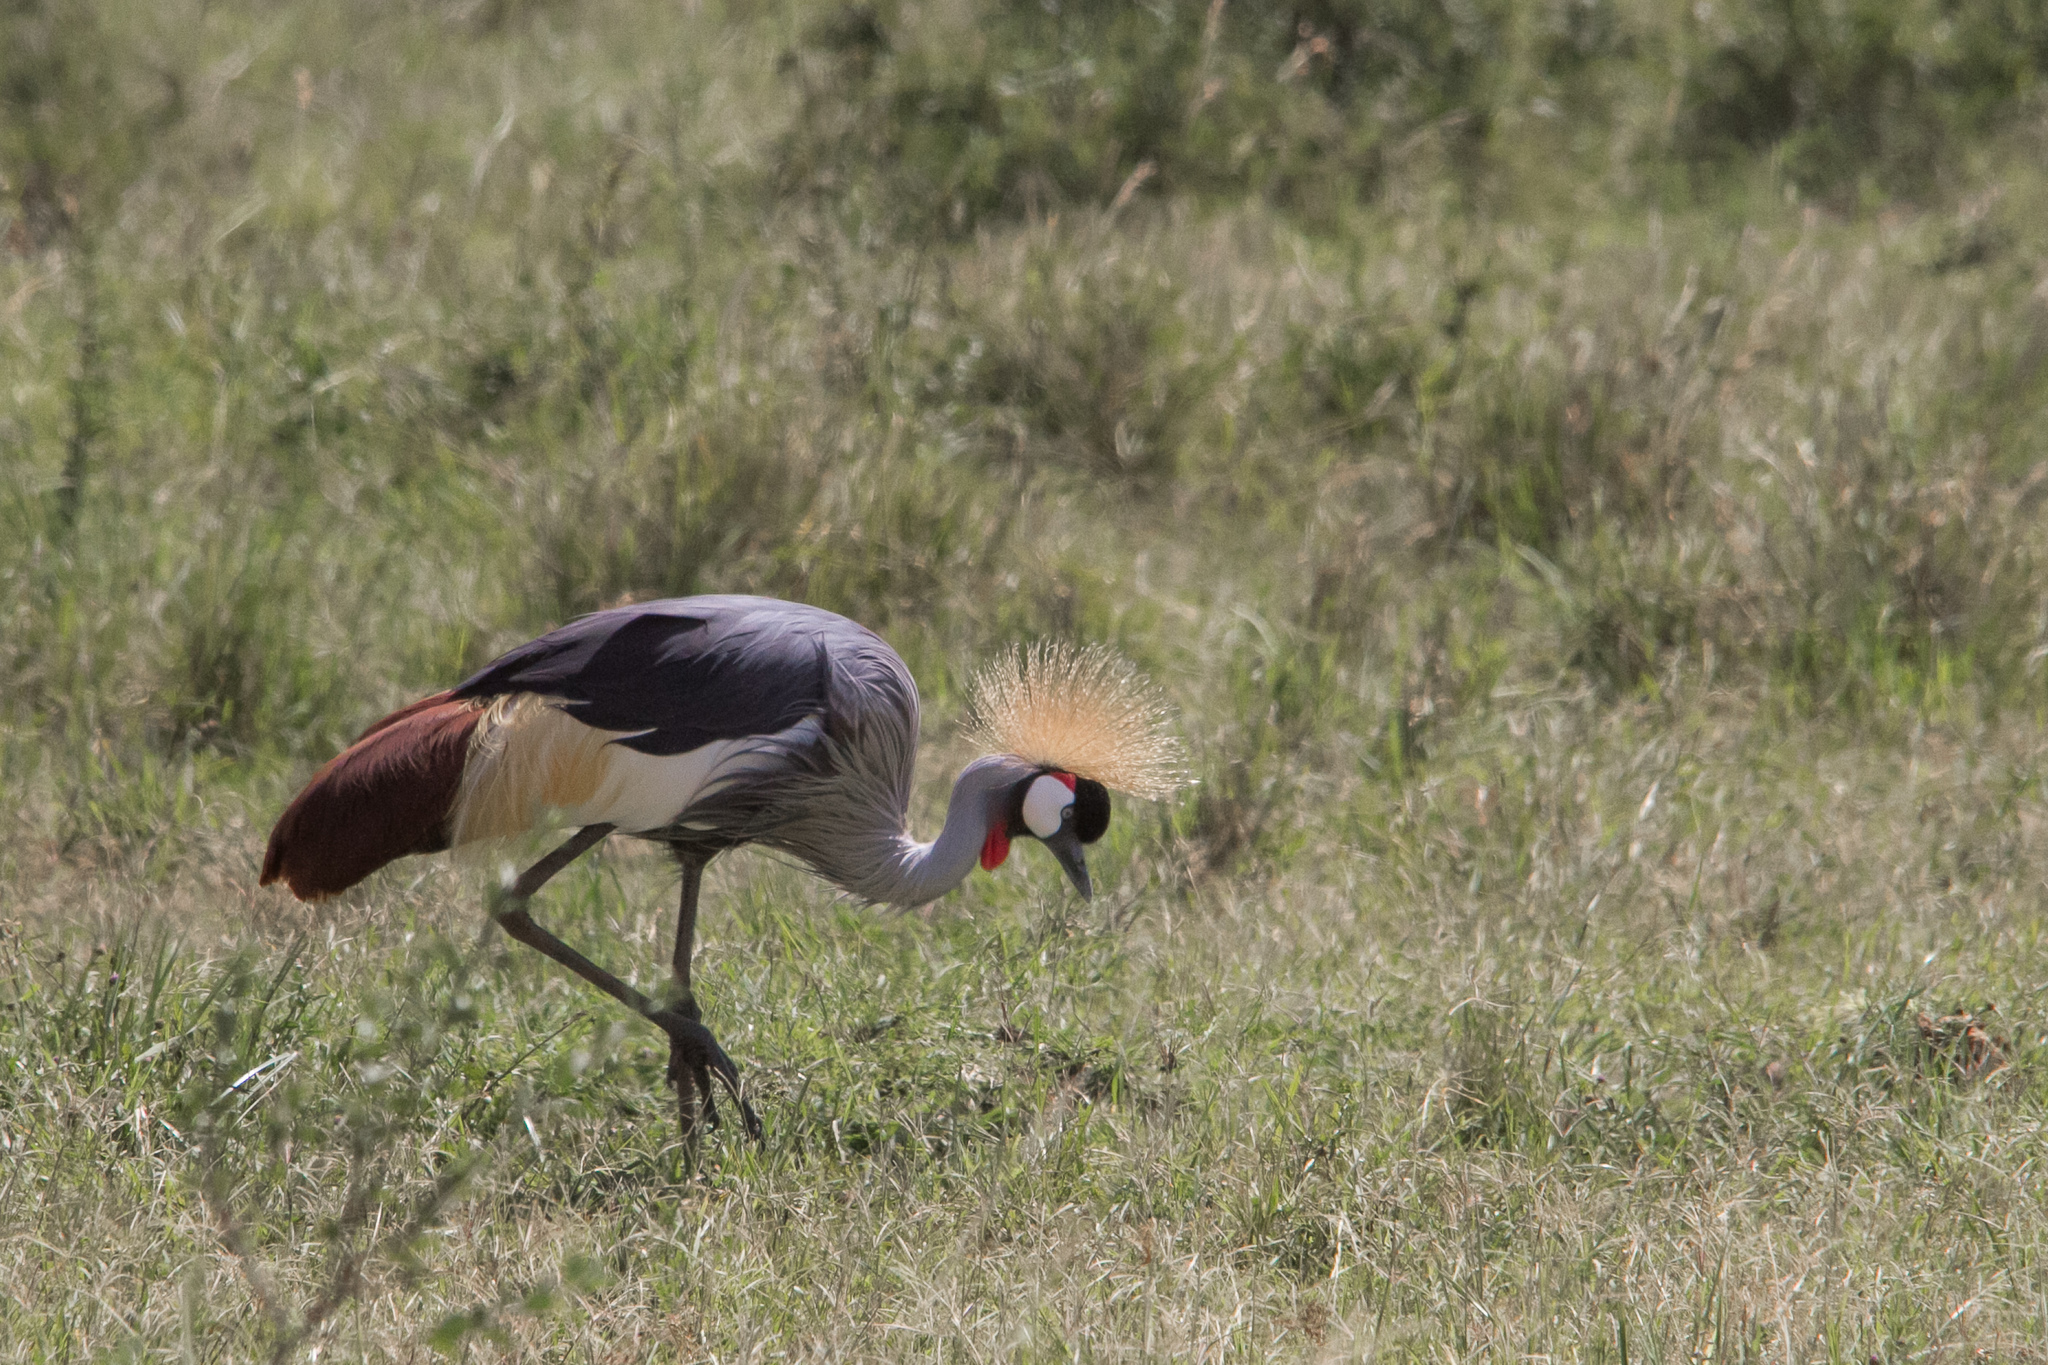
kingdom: Animalia
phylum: Chordata
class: Aves
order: Gruiformes
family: Gruidae
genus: Balearica
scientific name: Balearica regulorum
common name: Grey crowned crane
